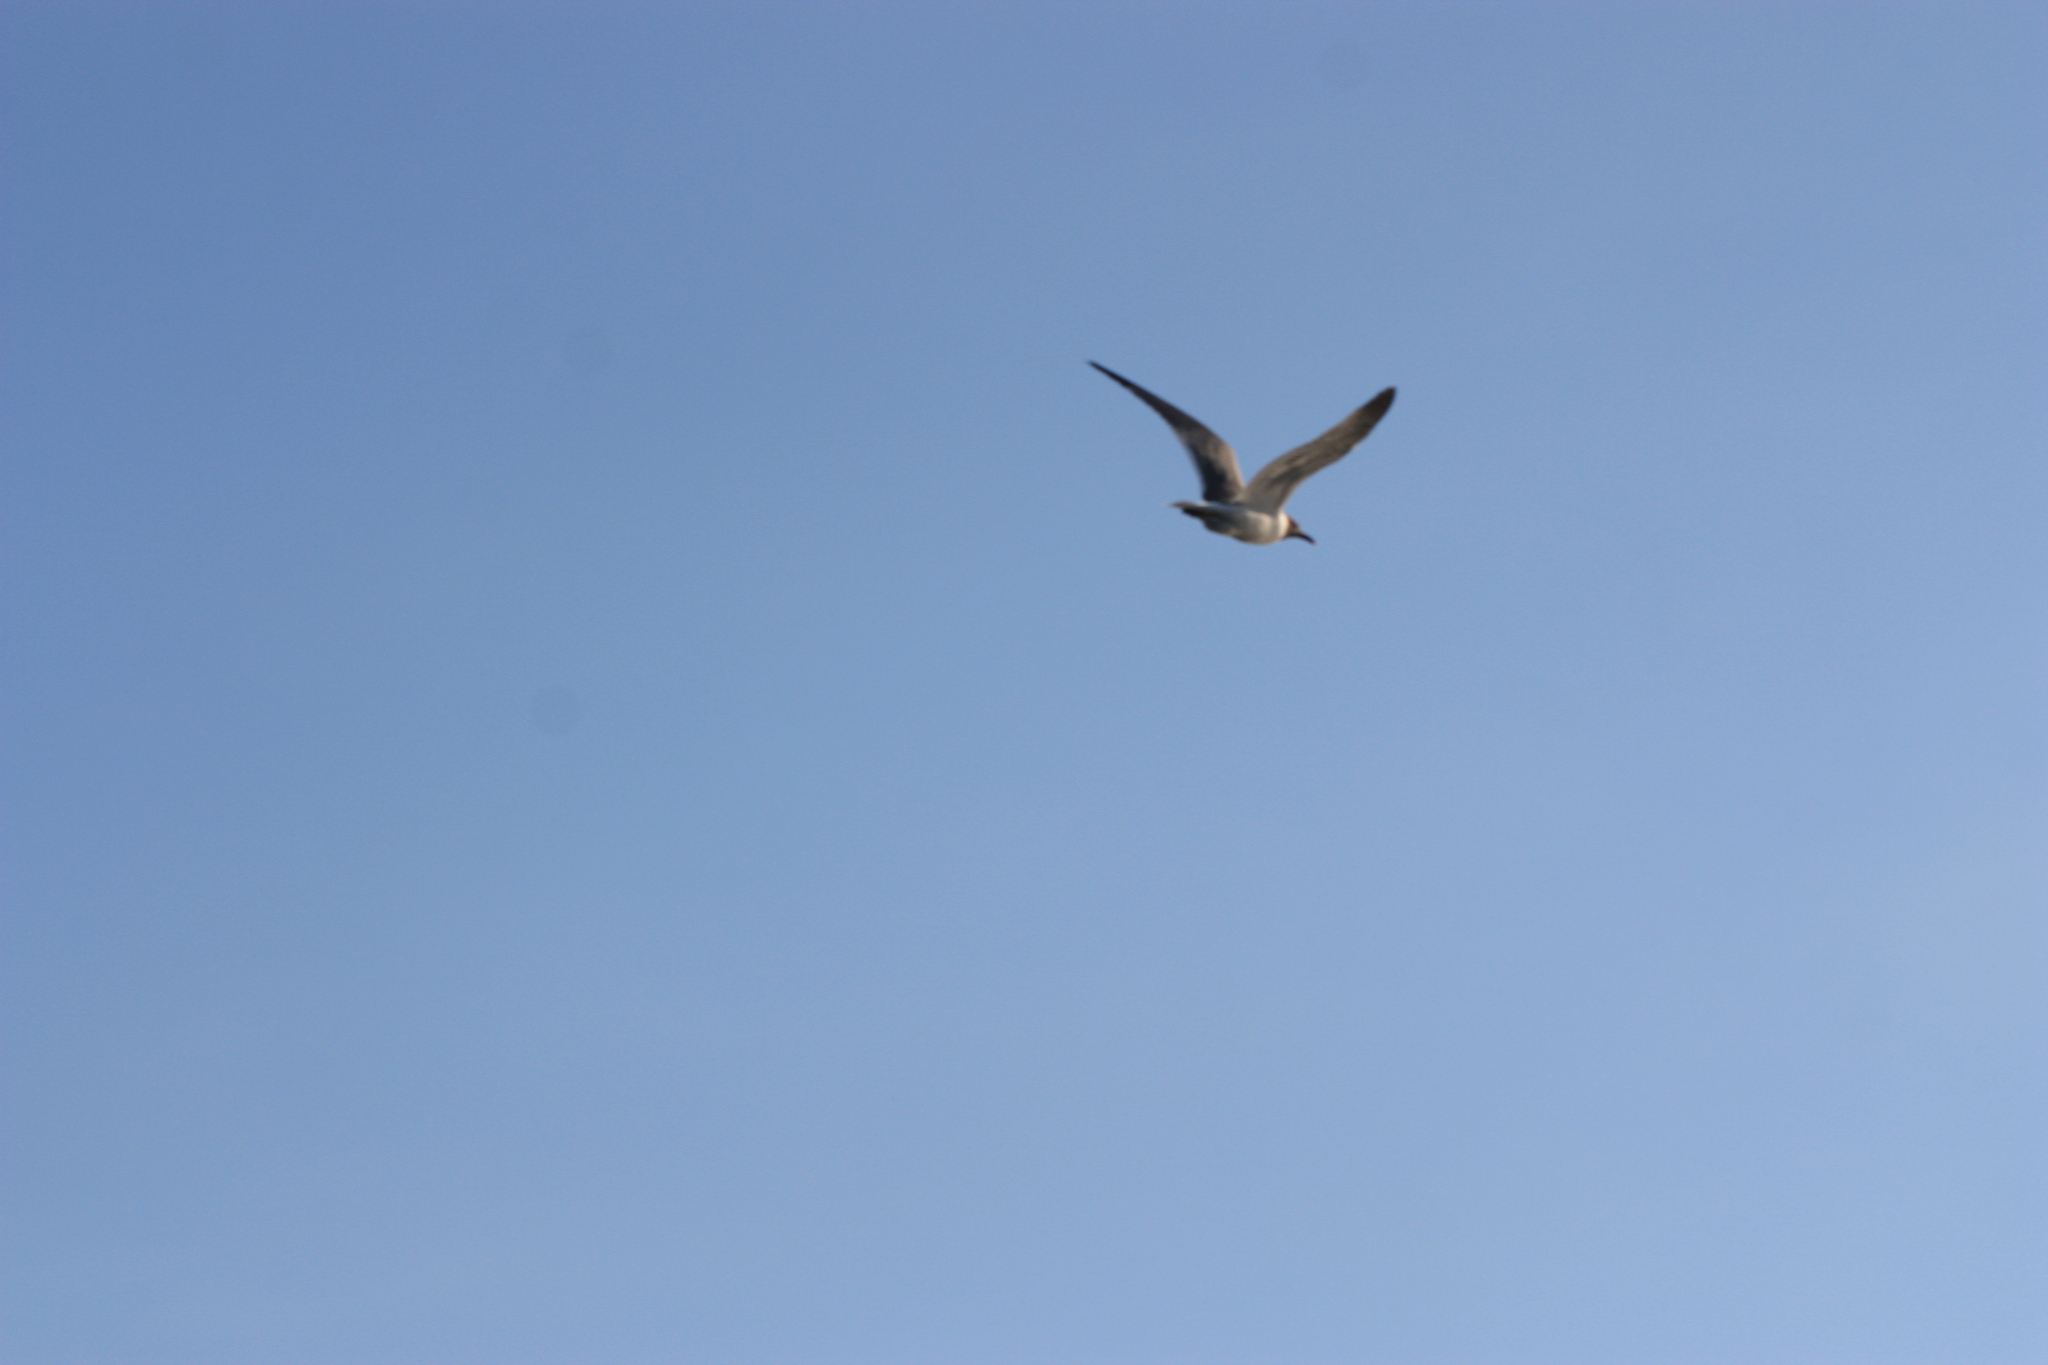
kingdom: Animalia
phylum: Chordata
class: Aves
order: Charadriiformes
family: Laridae
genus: Leucophaeus
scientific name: Leucophaeus atricilla
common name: Laughing gull
